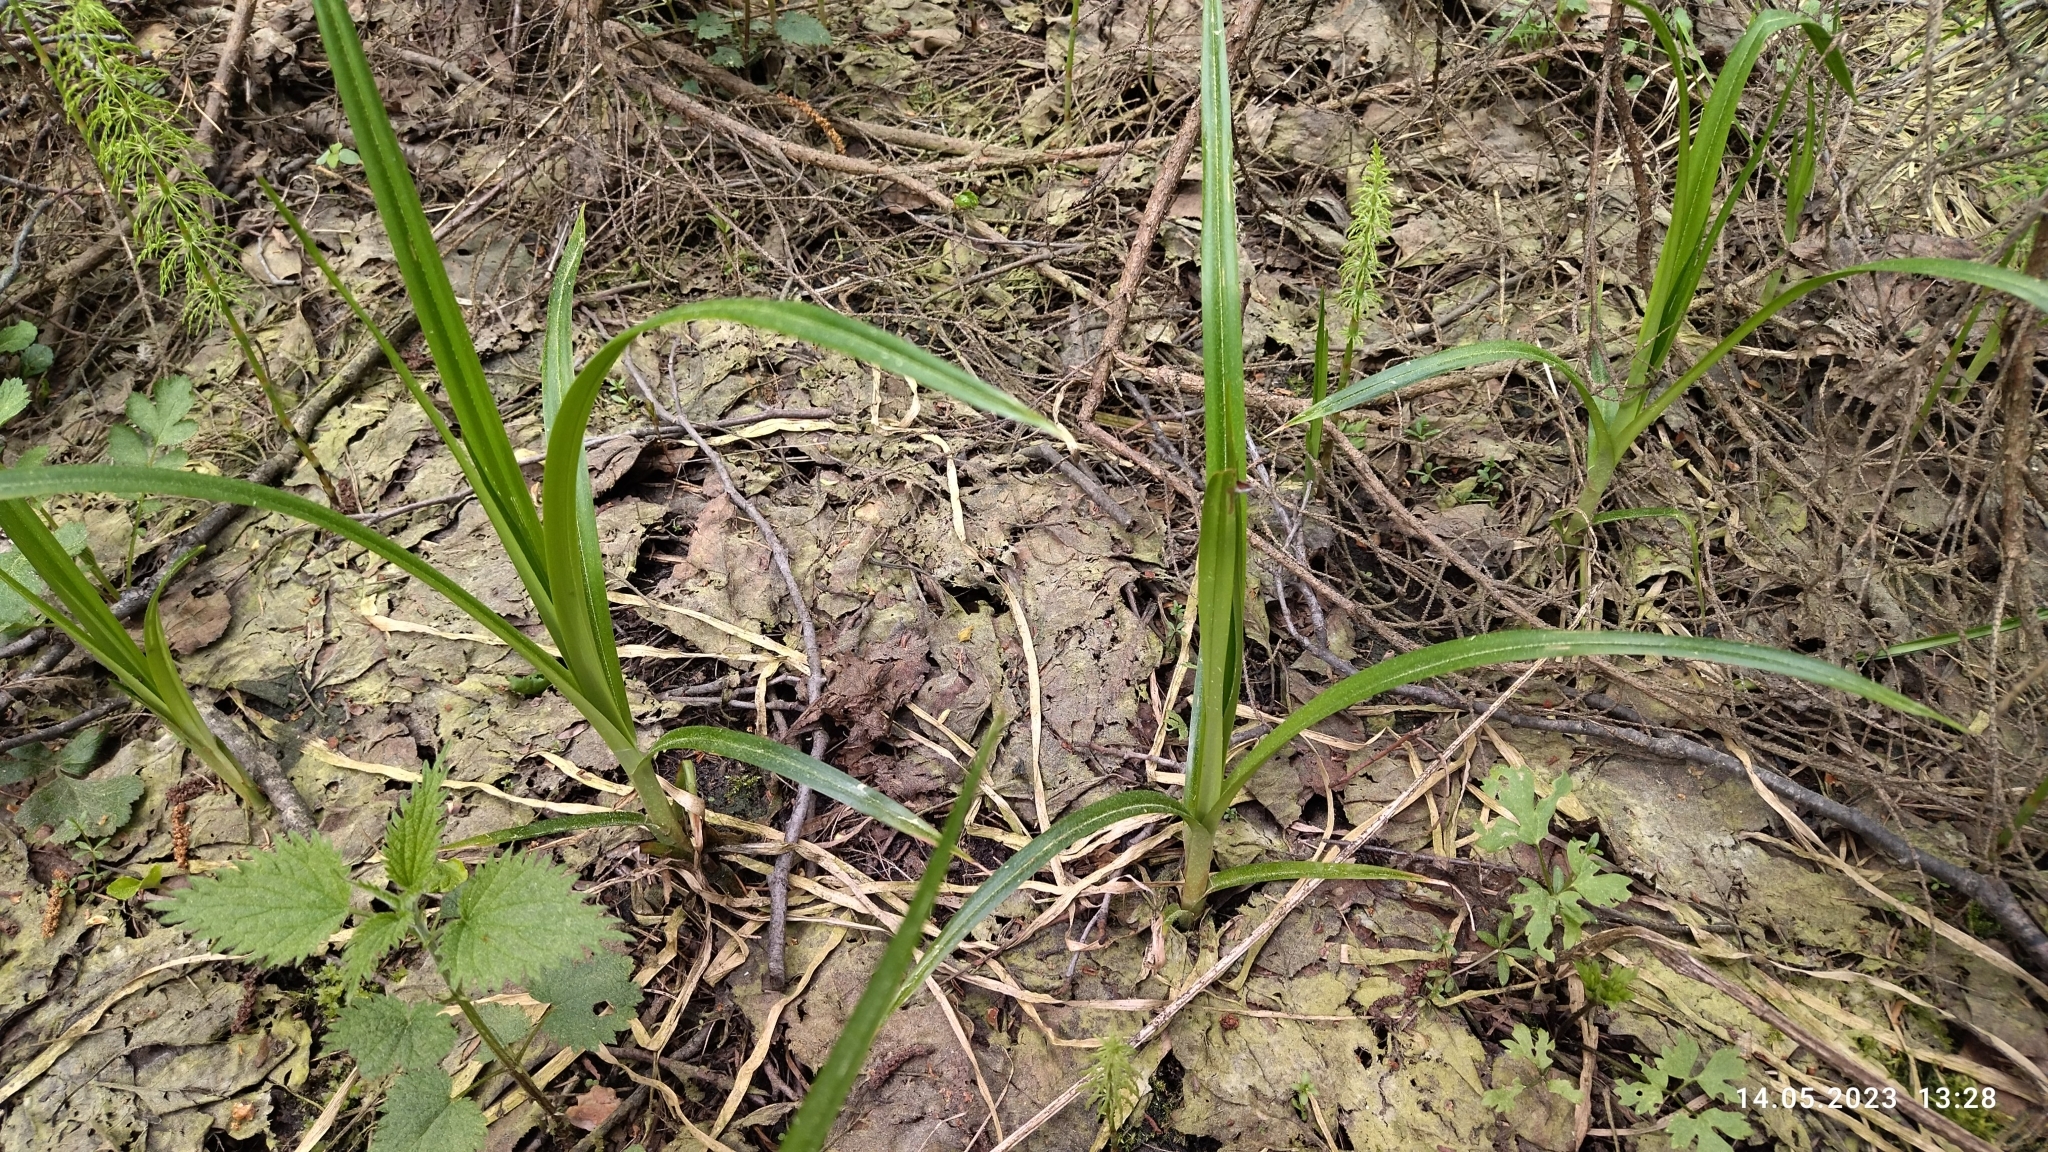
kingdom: Plantae
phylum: Tracheophyta
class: Liliopsida
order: Poales
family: Cyperaceae
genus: Scirpus
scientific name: Scirpus sylvaticus
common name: Wood club-rush
